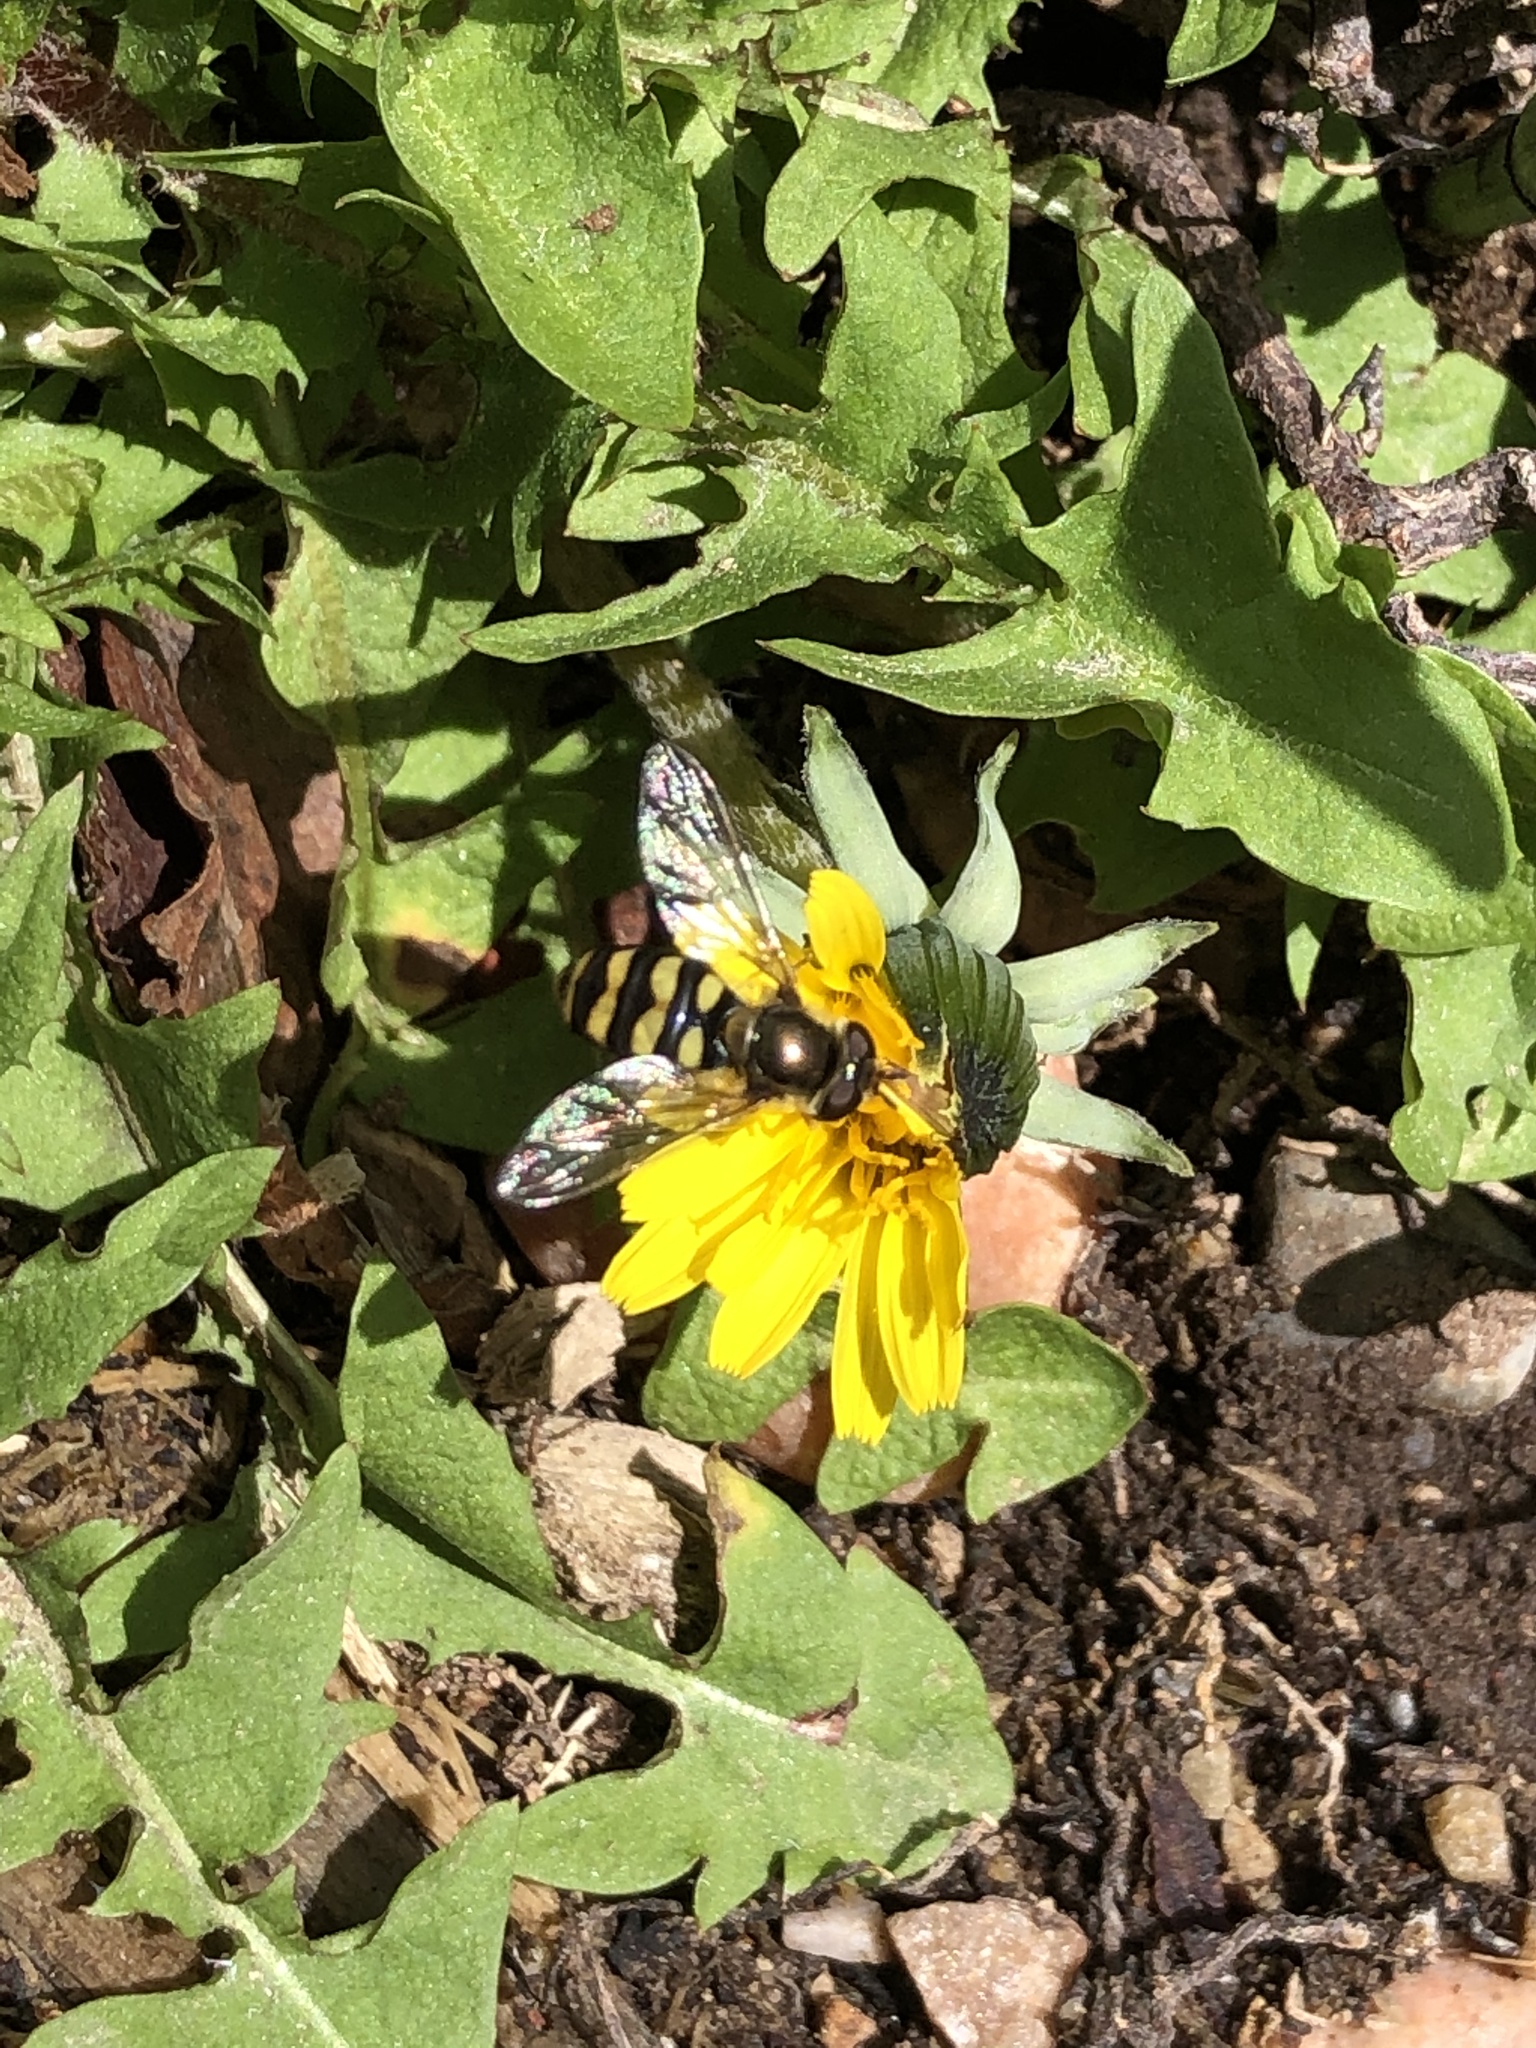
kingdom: Animalia
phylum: Arthropoda
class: Insecta
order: Diptera
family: Syrphidae
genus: Eupeodes
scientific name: Eupeodes fumipennis
